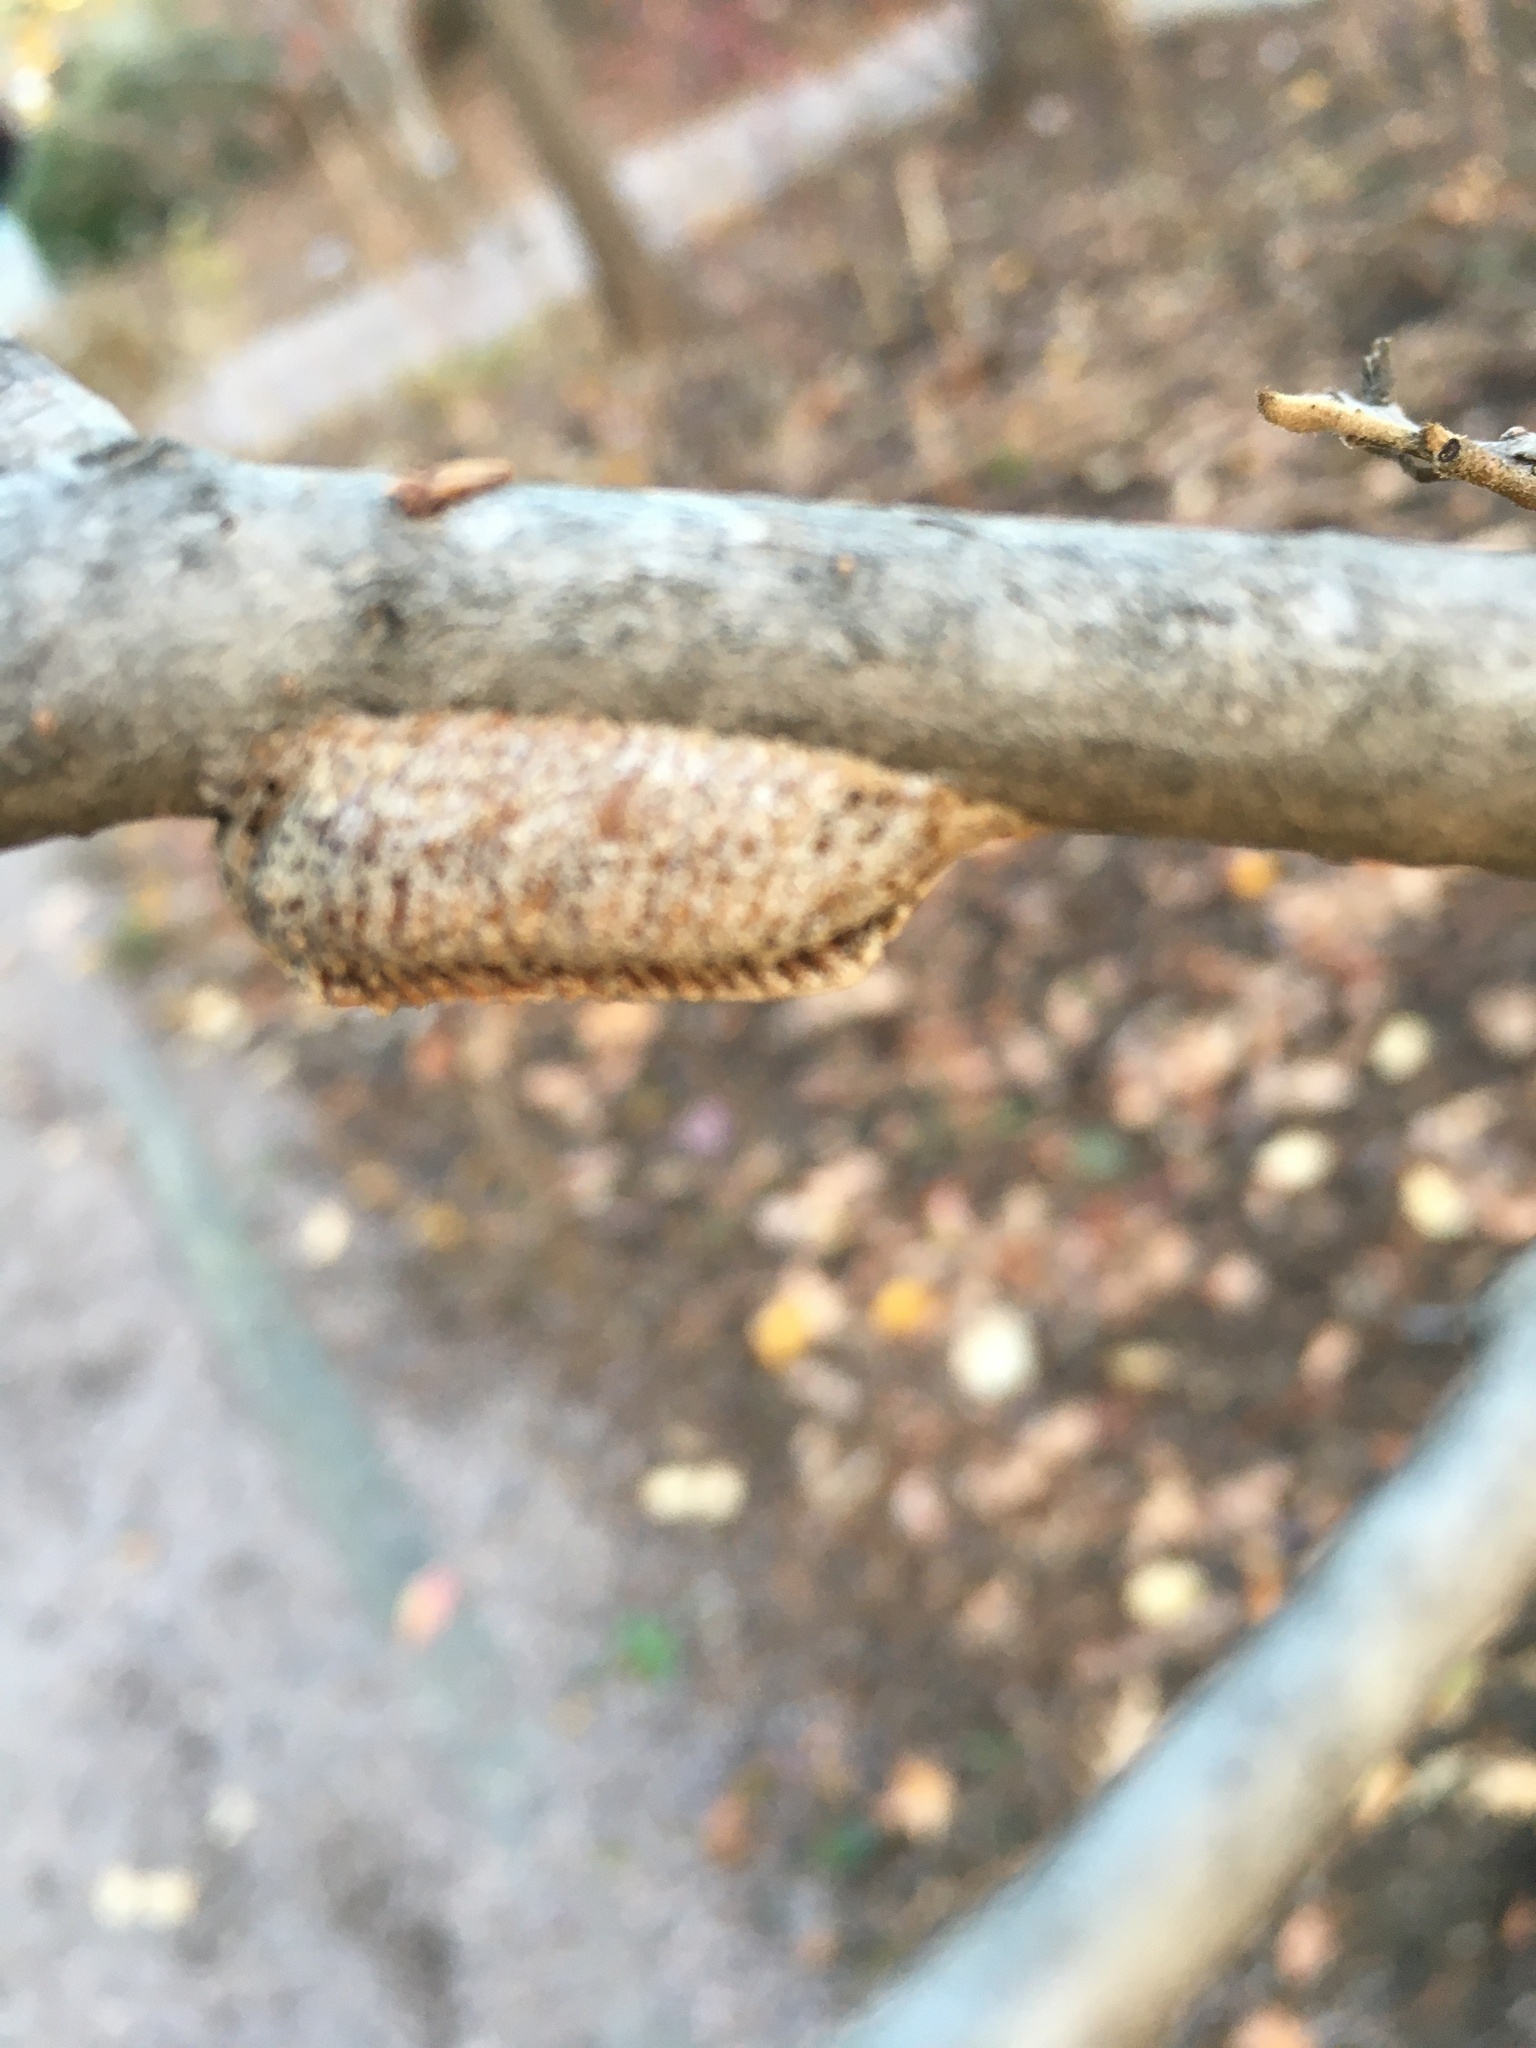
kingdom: Animalia
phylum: Arthropoda
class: Insecta
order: Mantodea
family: Mantidae
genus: Stagmomantis
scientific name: Stagmomantis carolina
